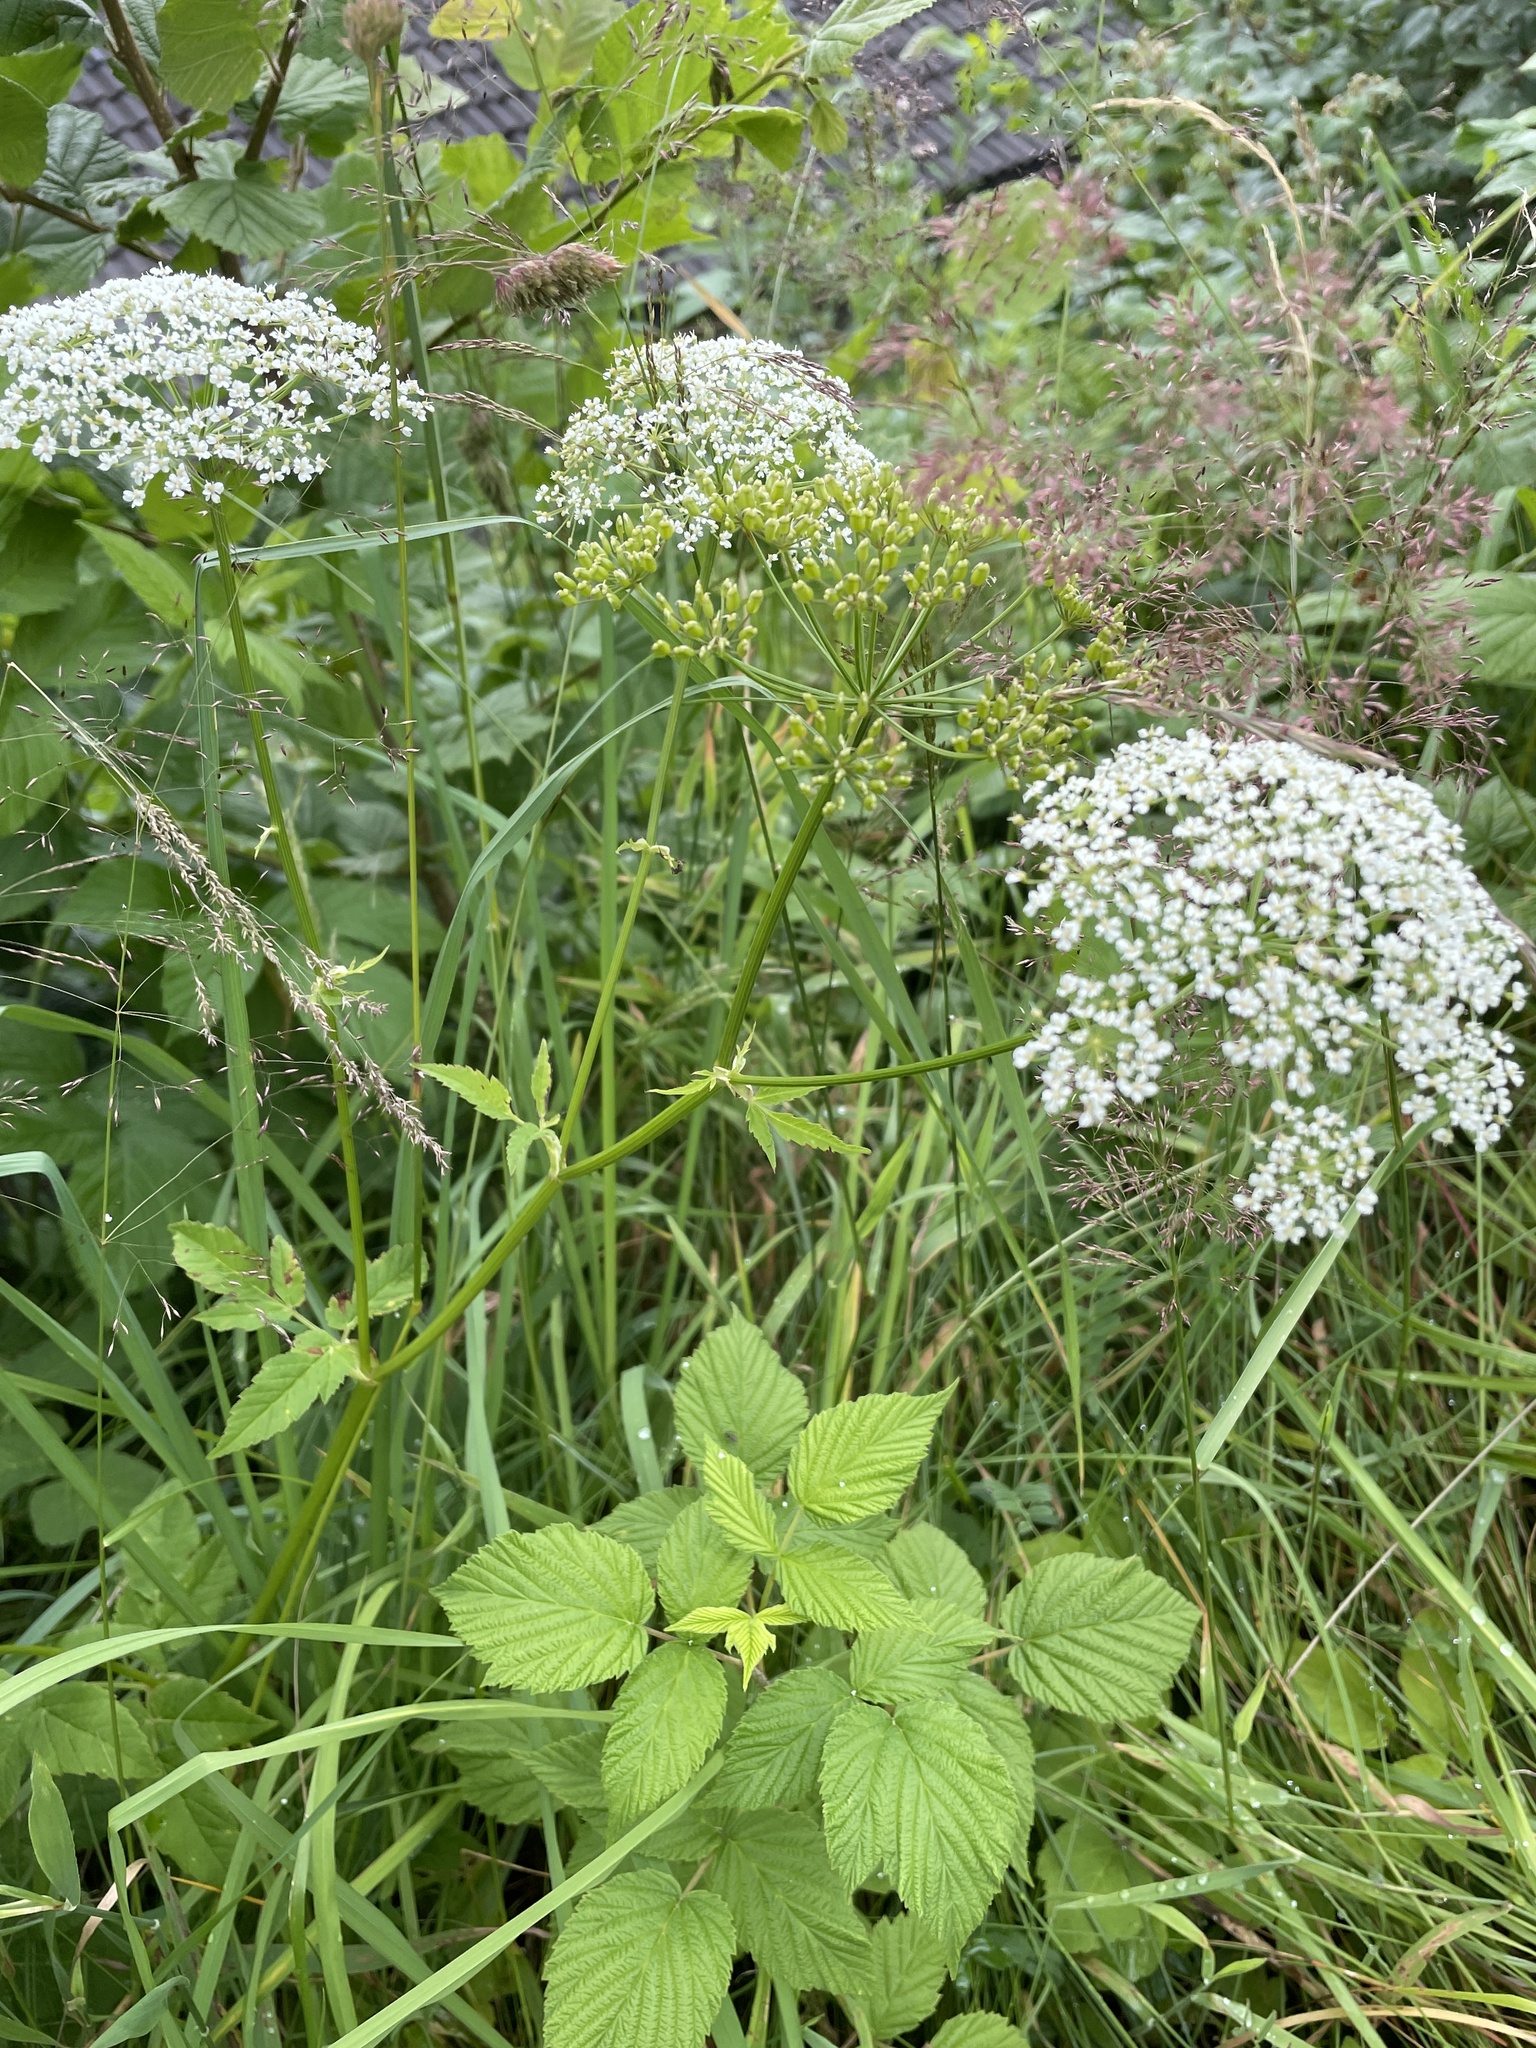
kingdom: Plantae
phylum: Tracheophyta
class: Magnoliopsida
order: Apiales
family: Apiaceae
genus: Aegopodium
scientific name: Aegopodium podagraria
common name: Ground-elder
